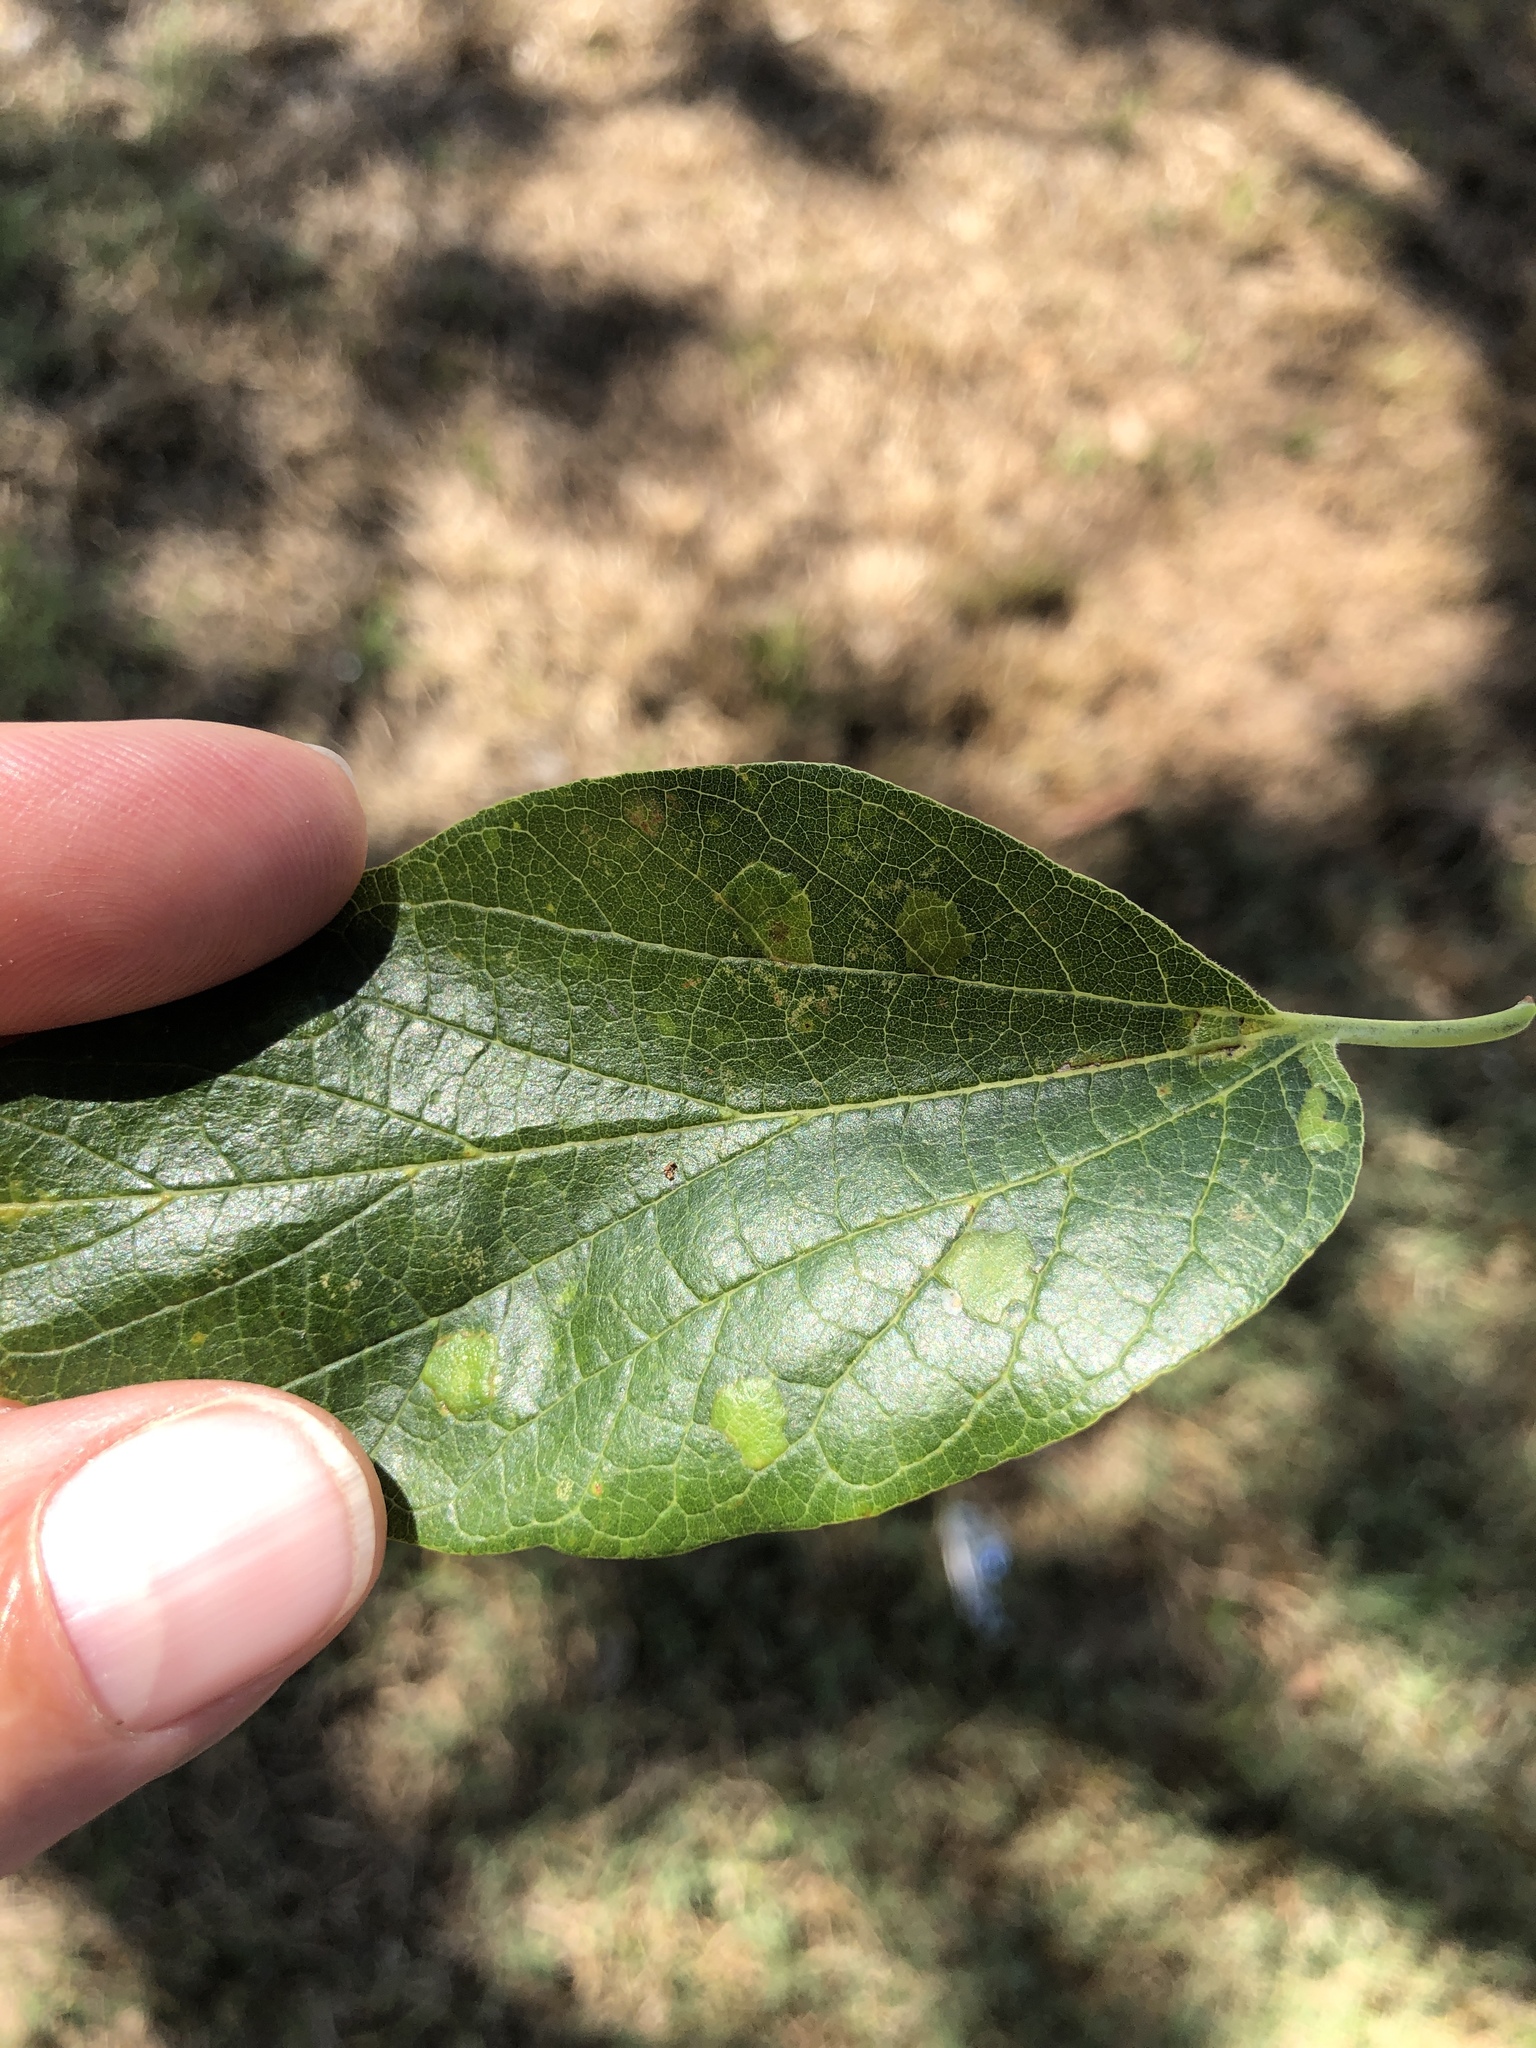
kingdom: Animalia
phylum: Arthropoda
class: Insecta
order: Hemiptera
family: Aphalaridae
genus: Pachypsylla
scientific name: Pachypsylla celtidisvesicula
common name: Hackberry blister gall psyllid
